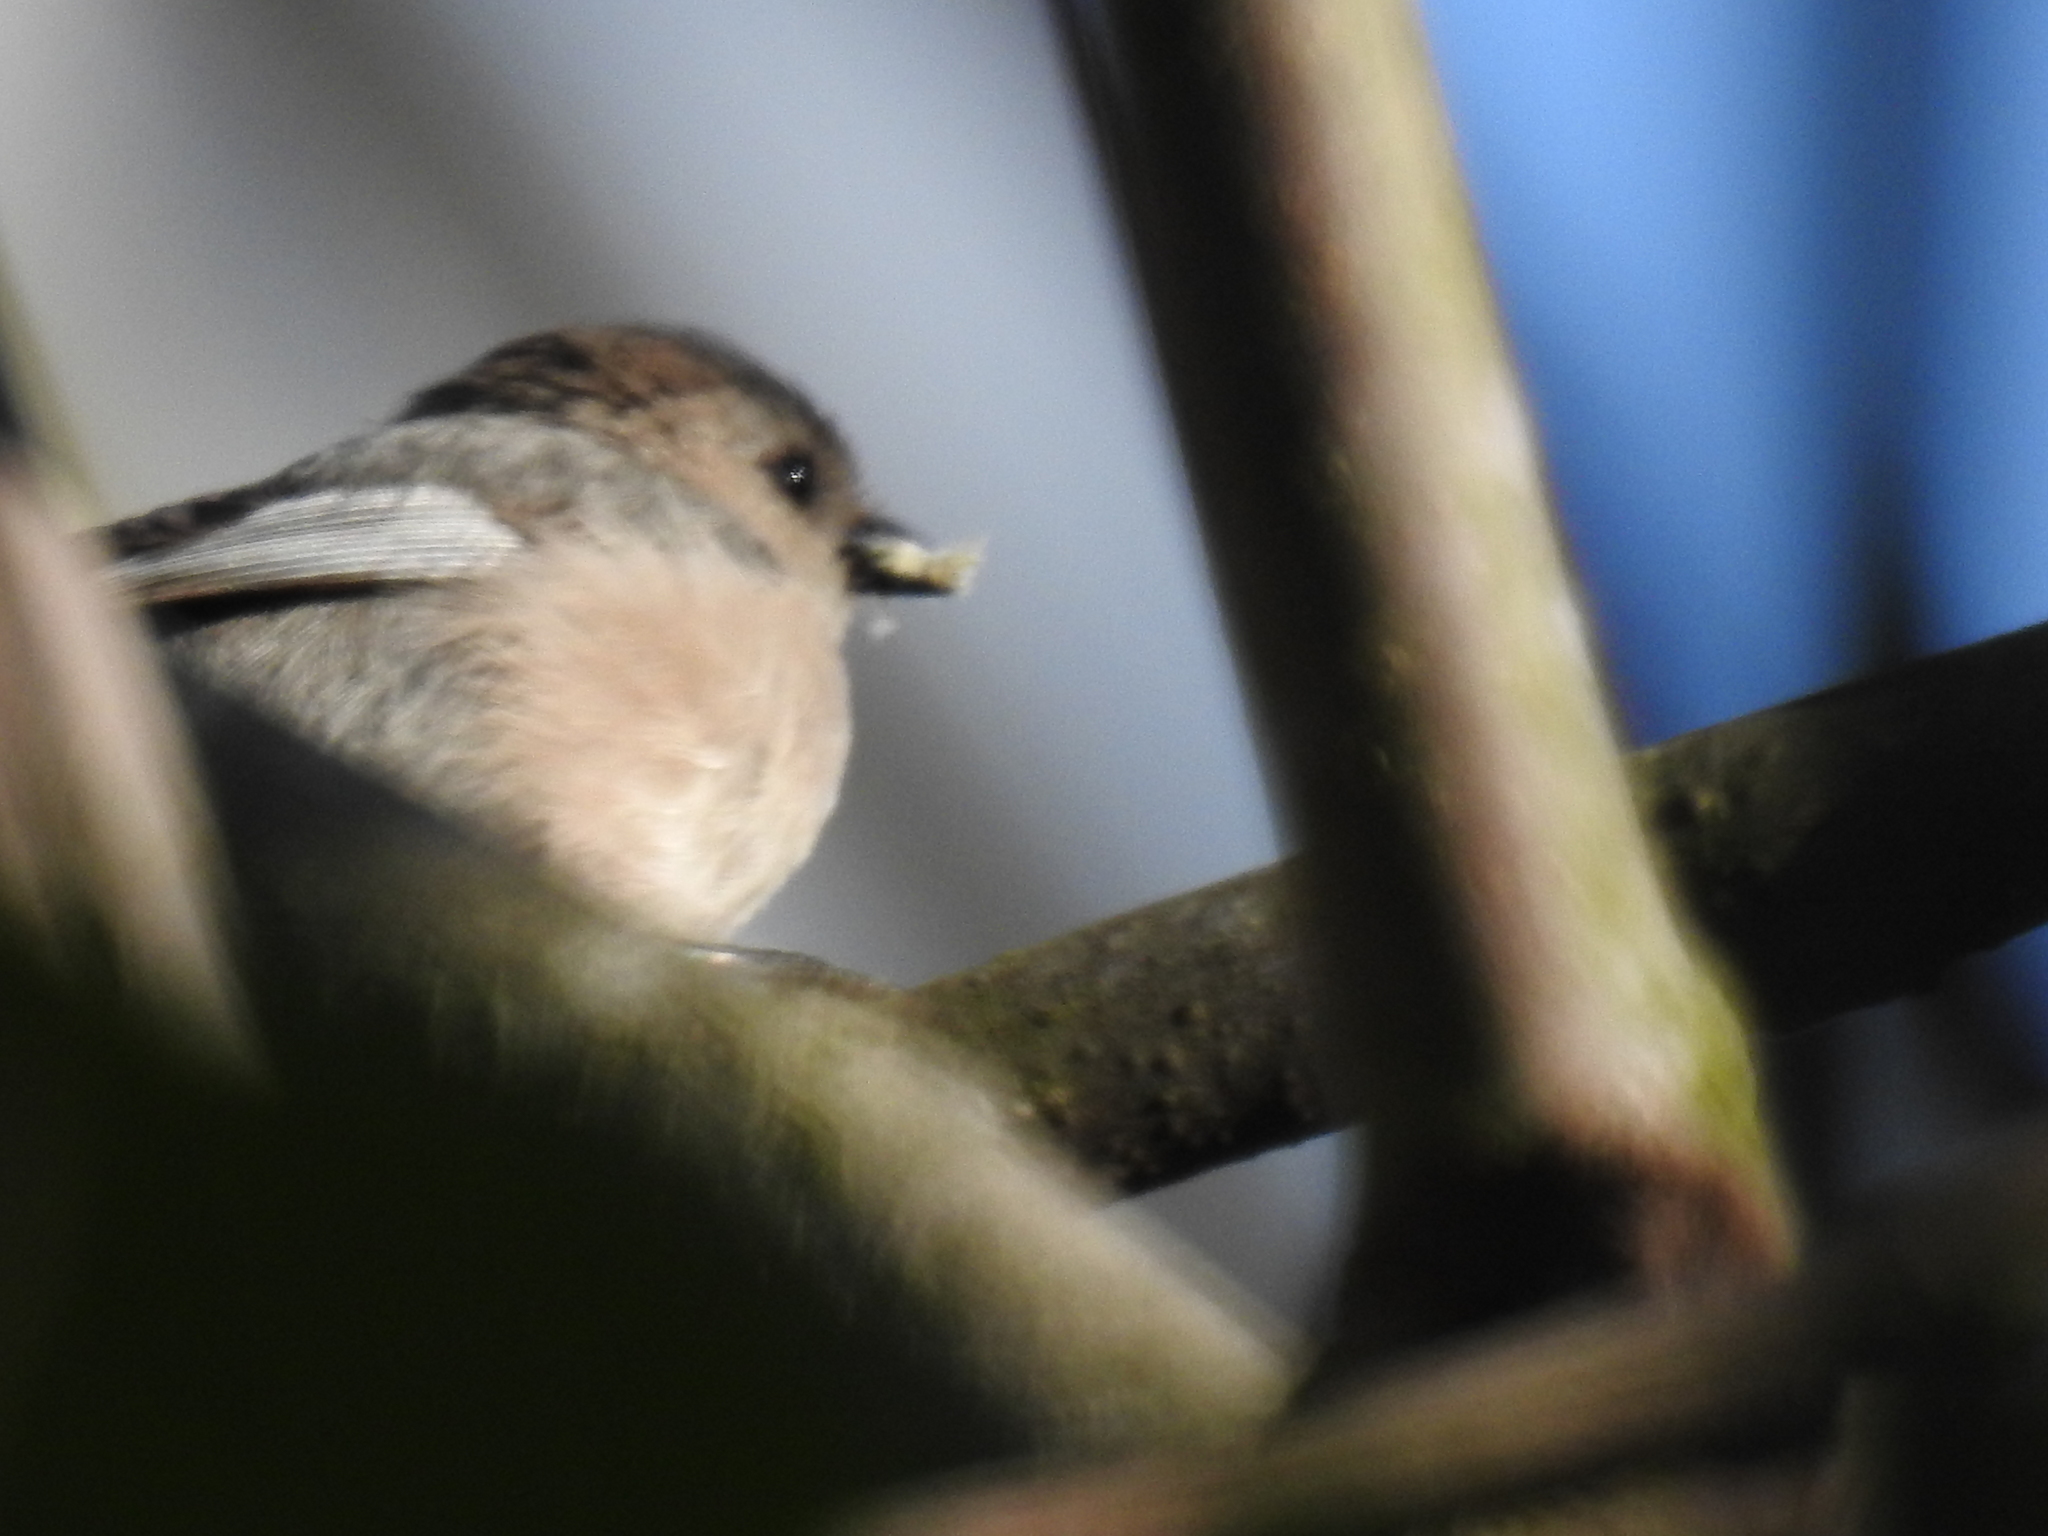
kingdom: Animalia
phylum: Chordata
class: Aves
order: Passeriformes
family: Aegithalidae
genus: Psaltriparus
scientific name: Psaltriparus minimus
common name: American bushtit
